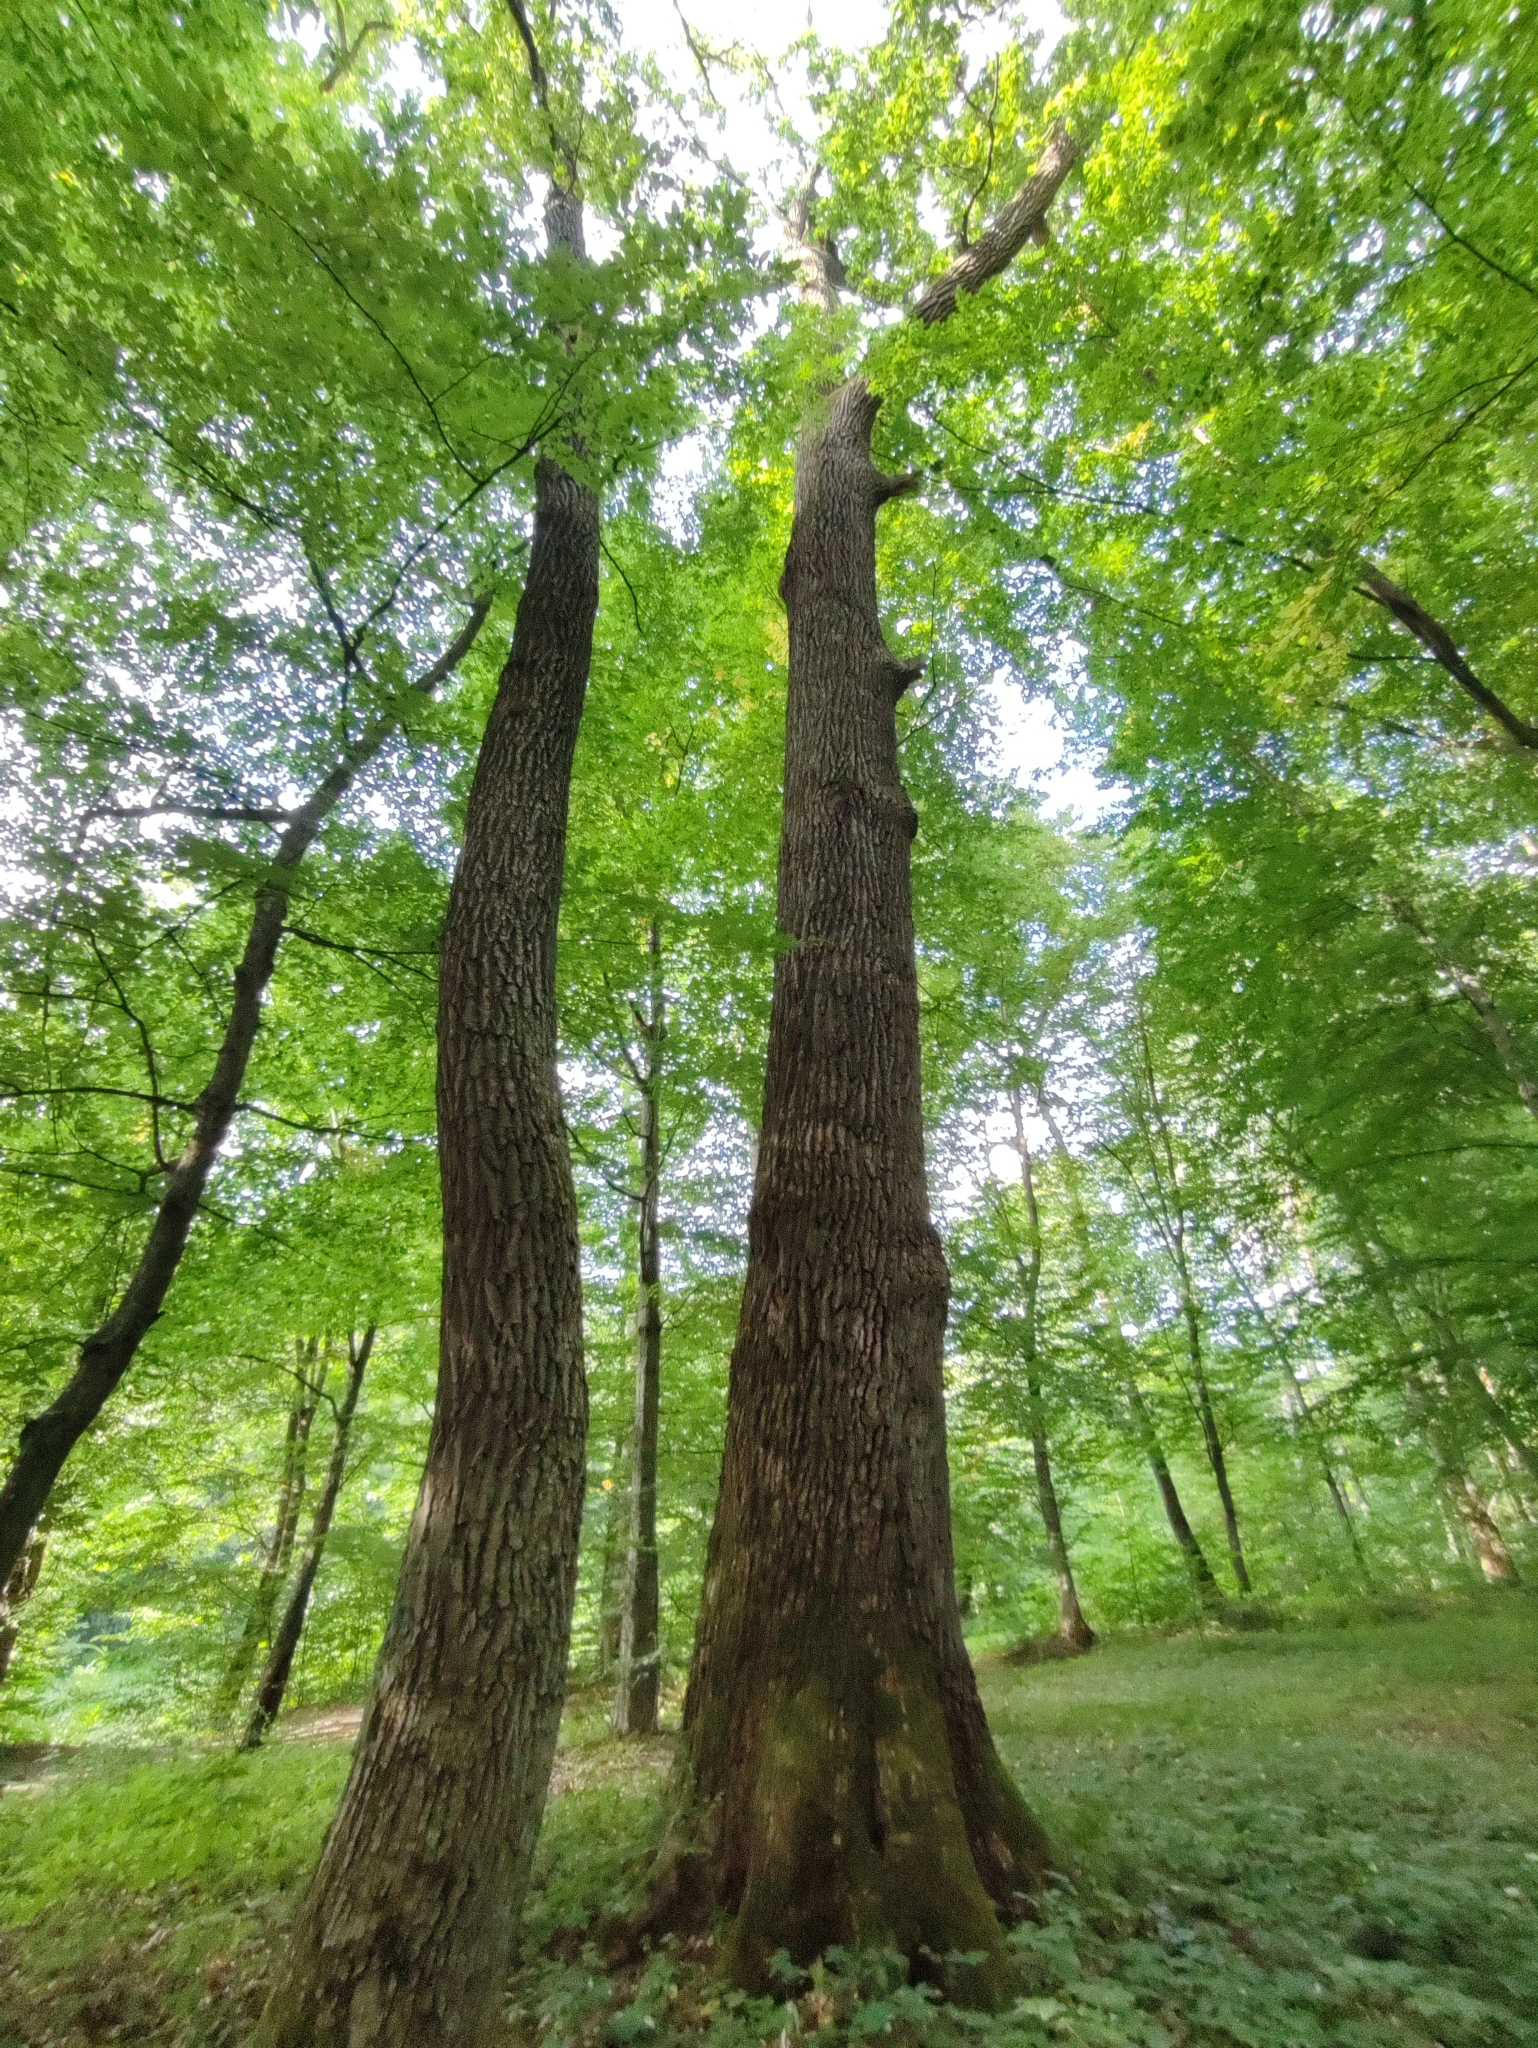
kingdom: Plantae
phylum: Tracheophyta
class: Magnoliopsida
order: Fagales
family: Fagaceae
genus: Quercus
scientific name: Quercus robur
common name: Pedunculate oak
